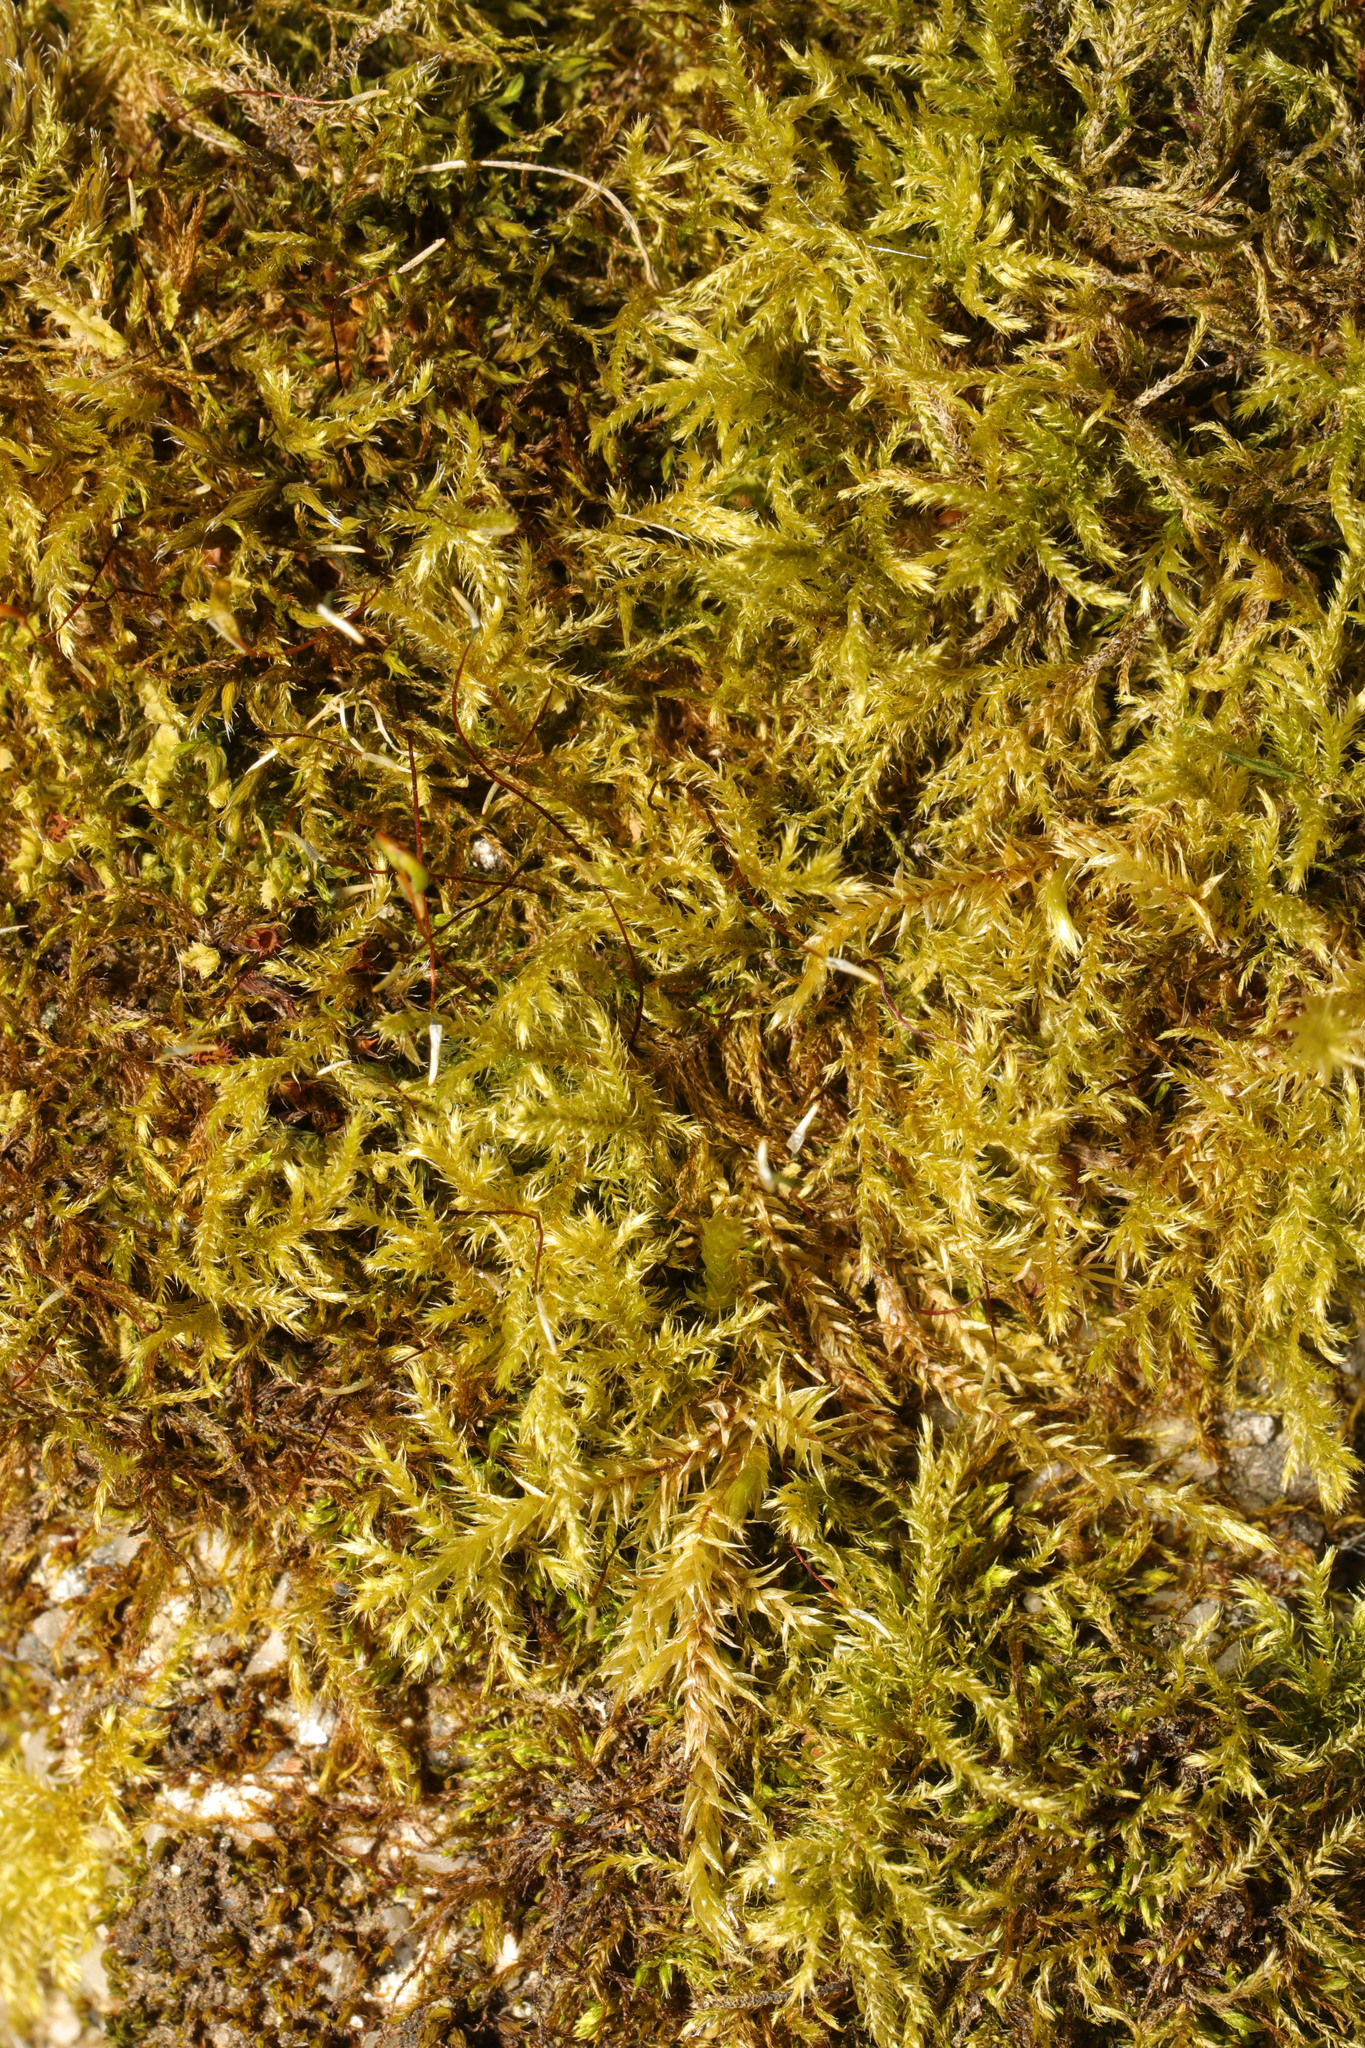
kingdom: Plantae
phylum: Bryophyta
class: Bryopsida
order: Hypnales
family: Brachytheciaceae
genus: Brachythecium
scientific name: Brachythecium rutabulum
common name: Rough-stalked feather-moss
